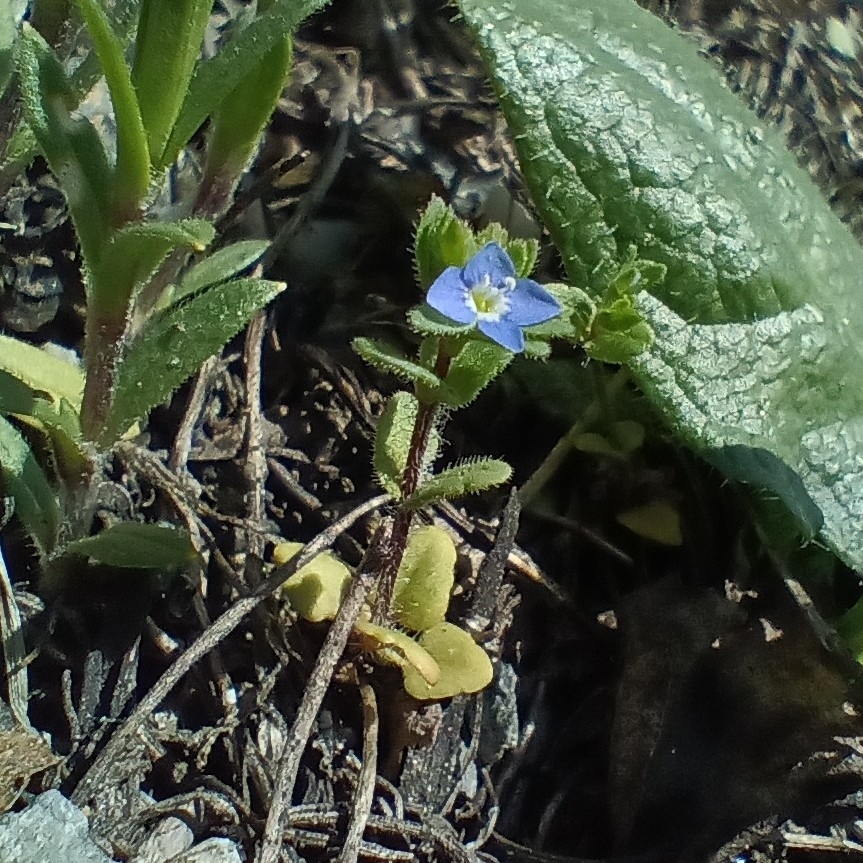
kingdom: Plantae
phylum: Tracheophyta
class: Magnoliopsida
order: Lamiales
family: Plantaginaceae
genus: Veronica
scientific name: Veronica arvensis
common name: Corn speedwell
